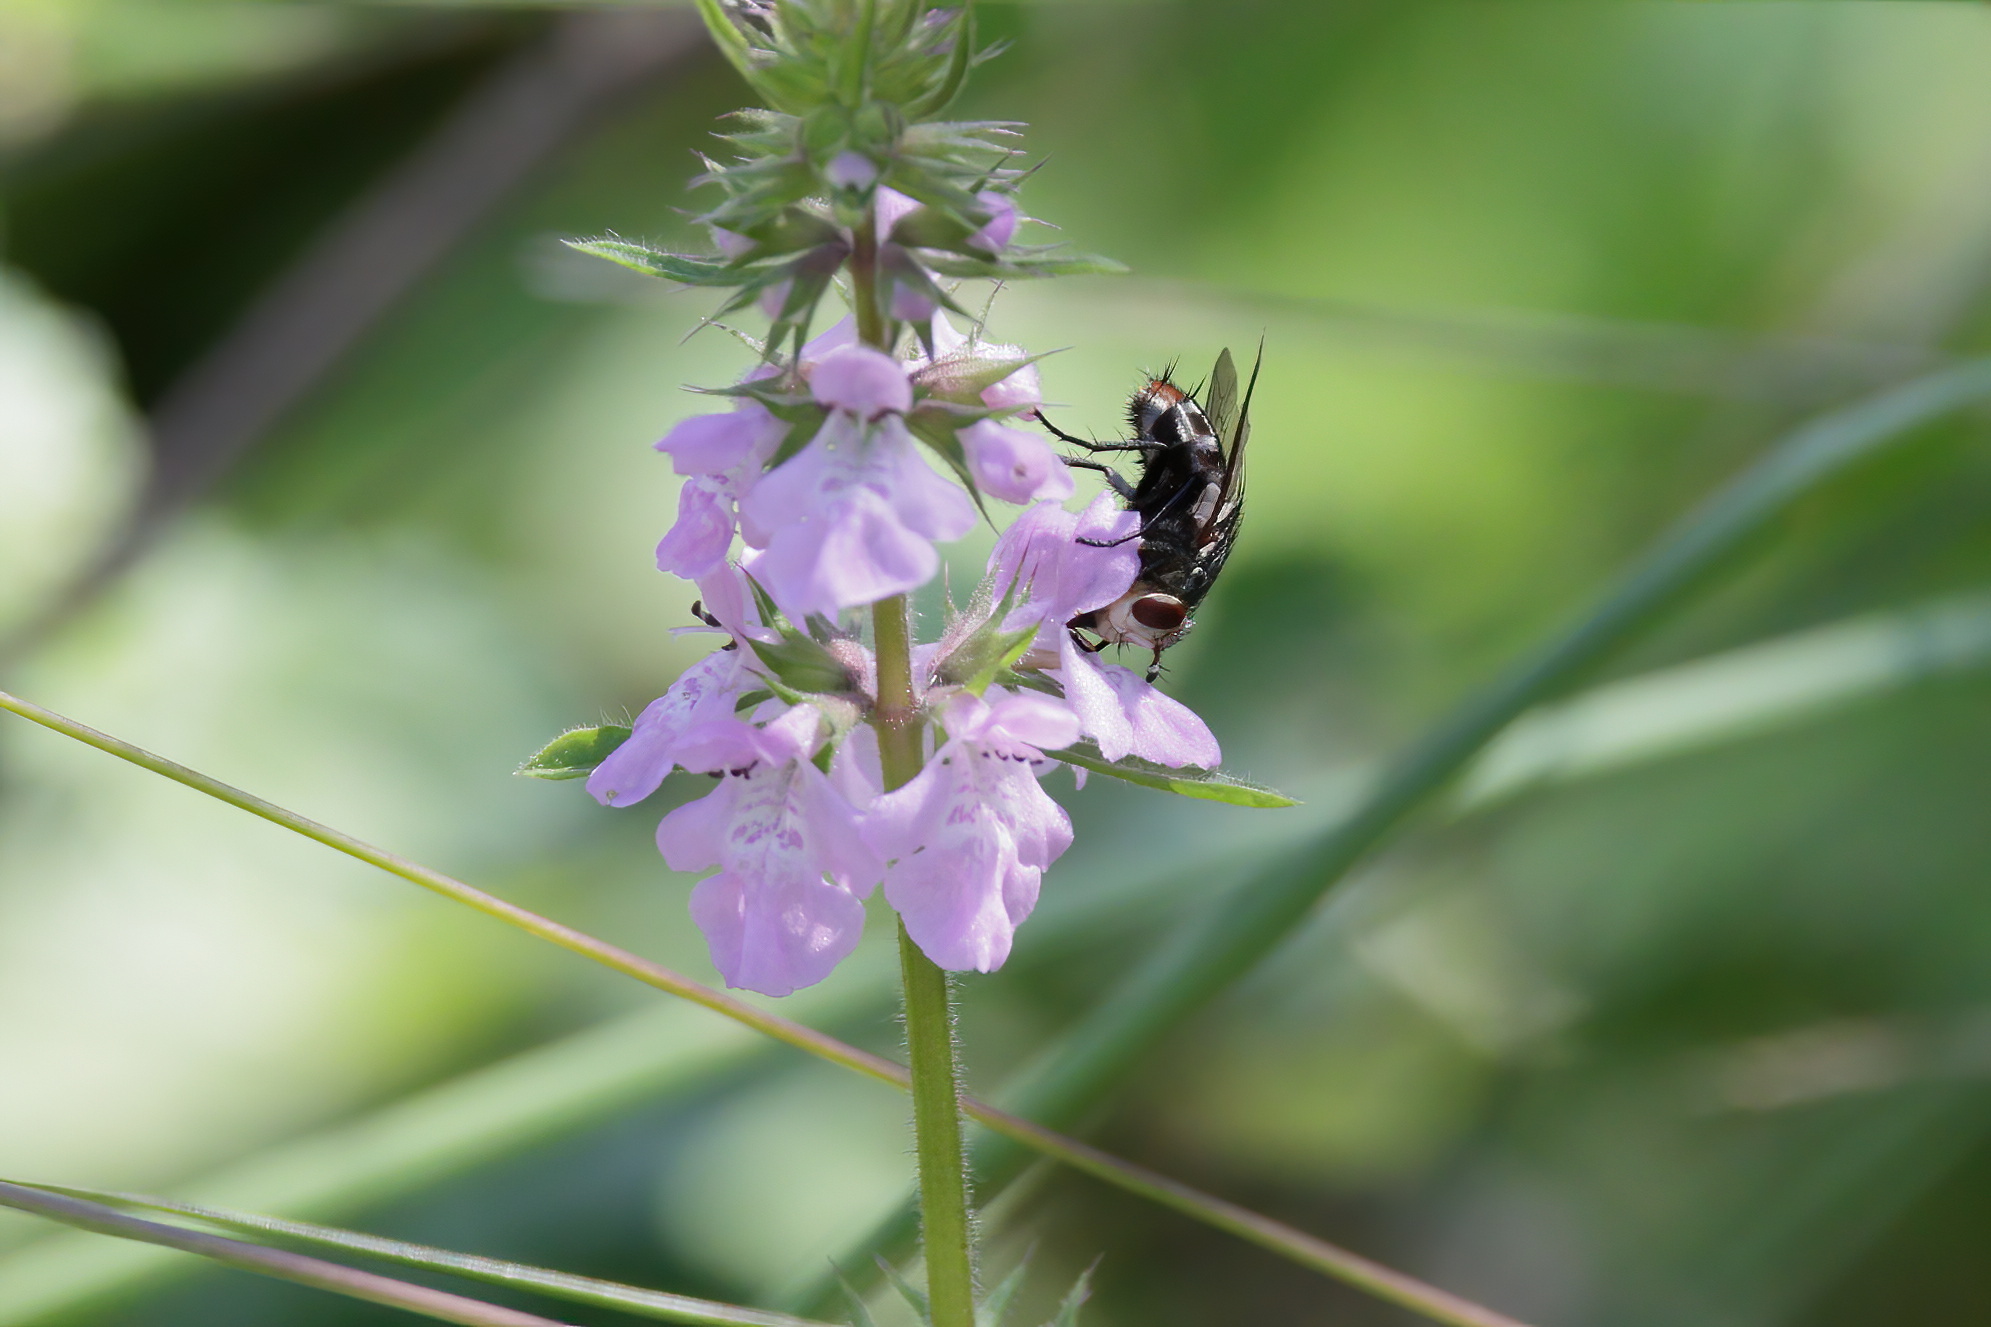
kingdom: Plantae
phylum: Tracheophyta
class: Magnoliopsida
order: Lamiales
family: Lamiaceae
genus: Stachys
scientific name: Stachys drummondii
